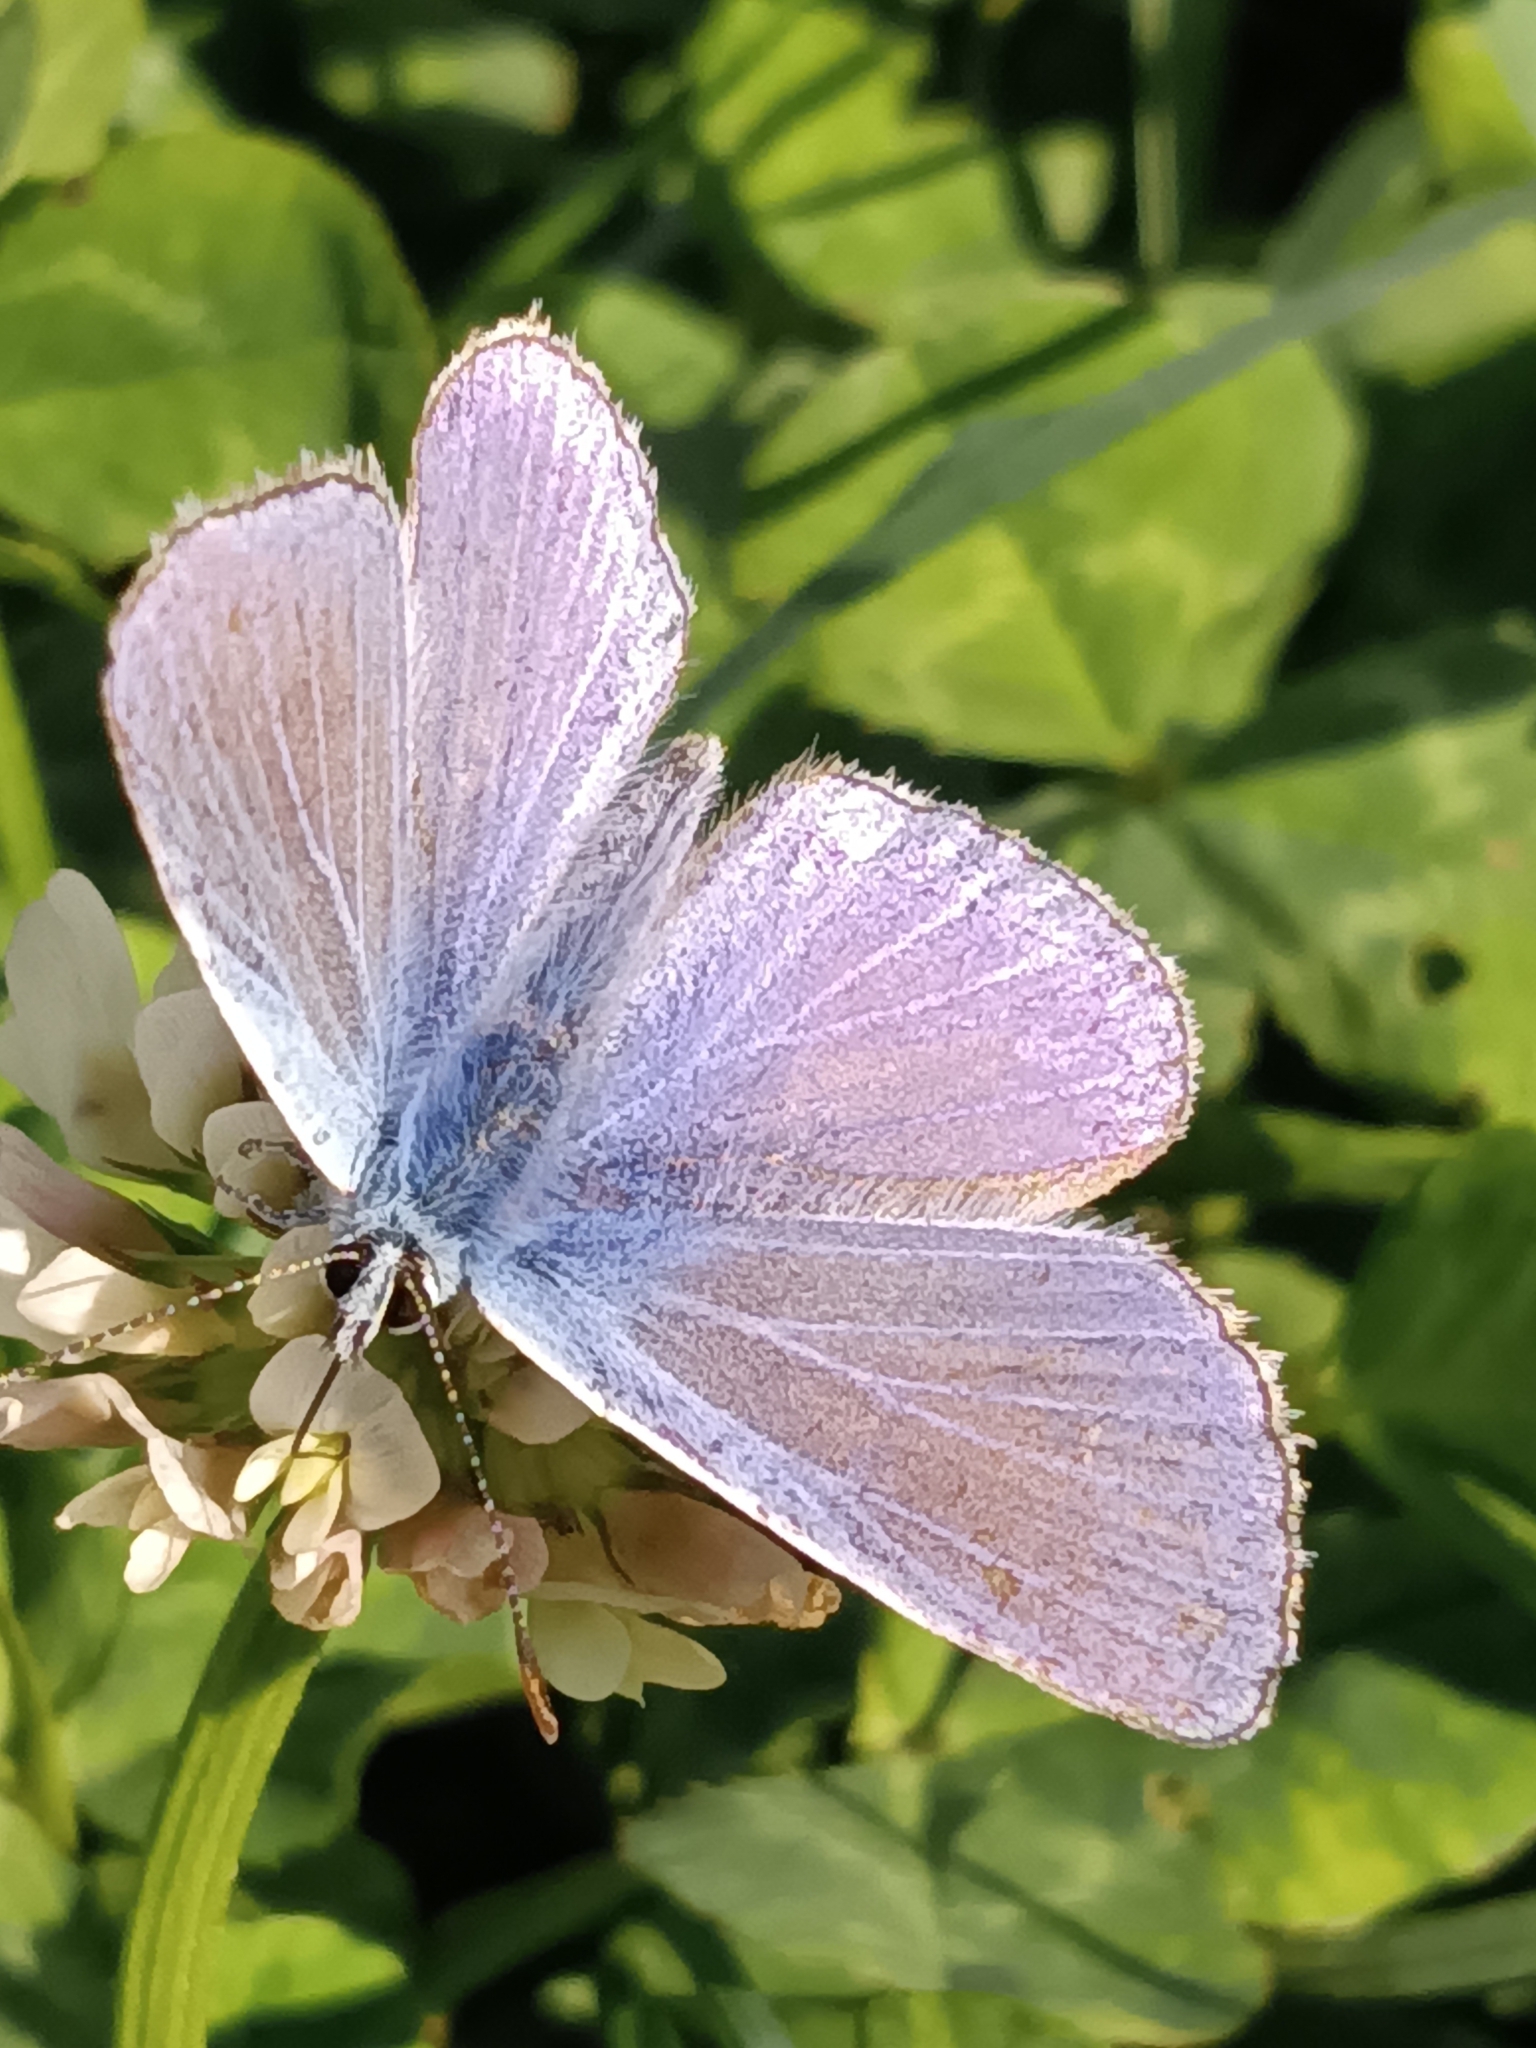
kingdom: Animalia
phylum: Arthropoda
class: Insecta
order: Lepidoptera
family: Lycaenidae
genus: Polyommatus
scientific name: Polyommatus icarus
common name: Common blue
